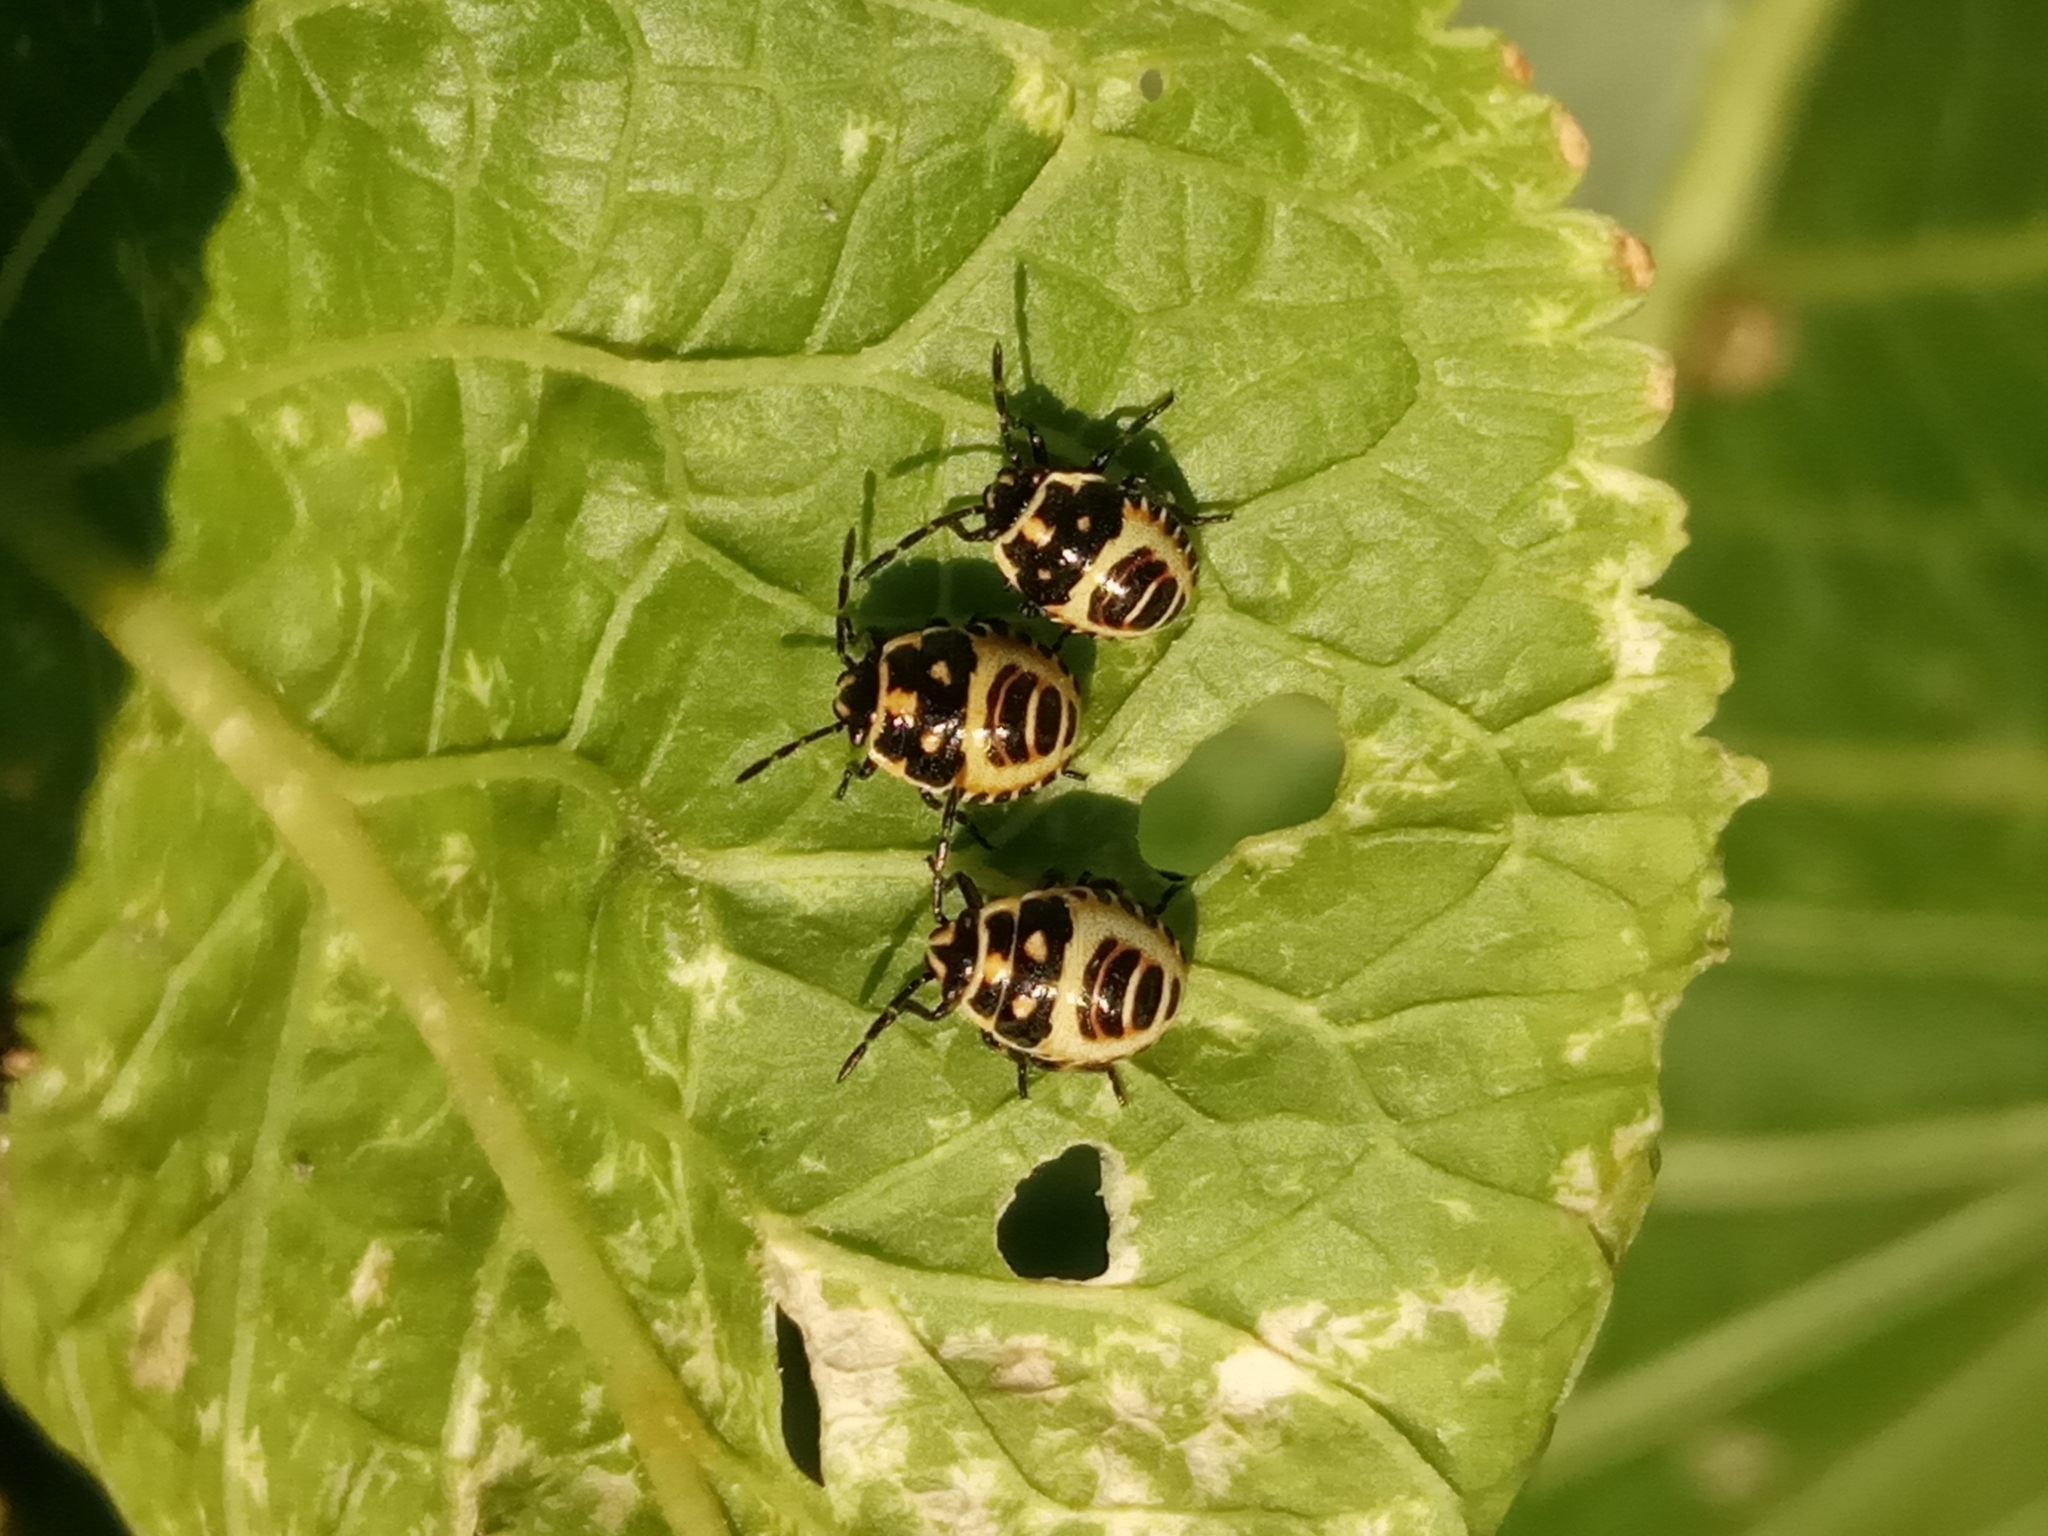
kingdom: Animalia
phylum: Arthropoda
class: Insecta
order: Hemiptera
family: Pentatomidae
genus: Eurydema
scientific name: Eurydema oleracea
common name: Cabbage bug
